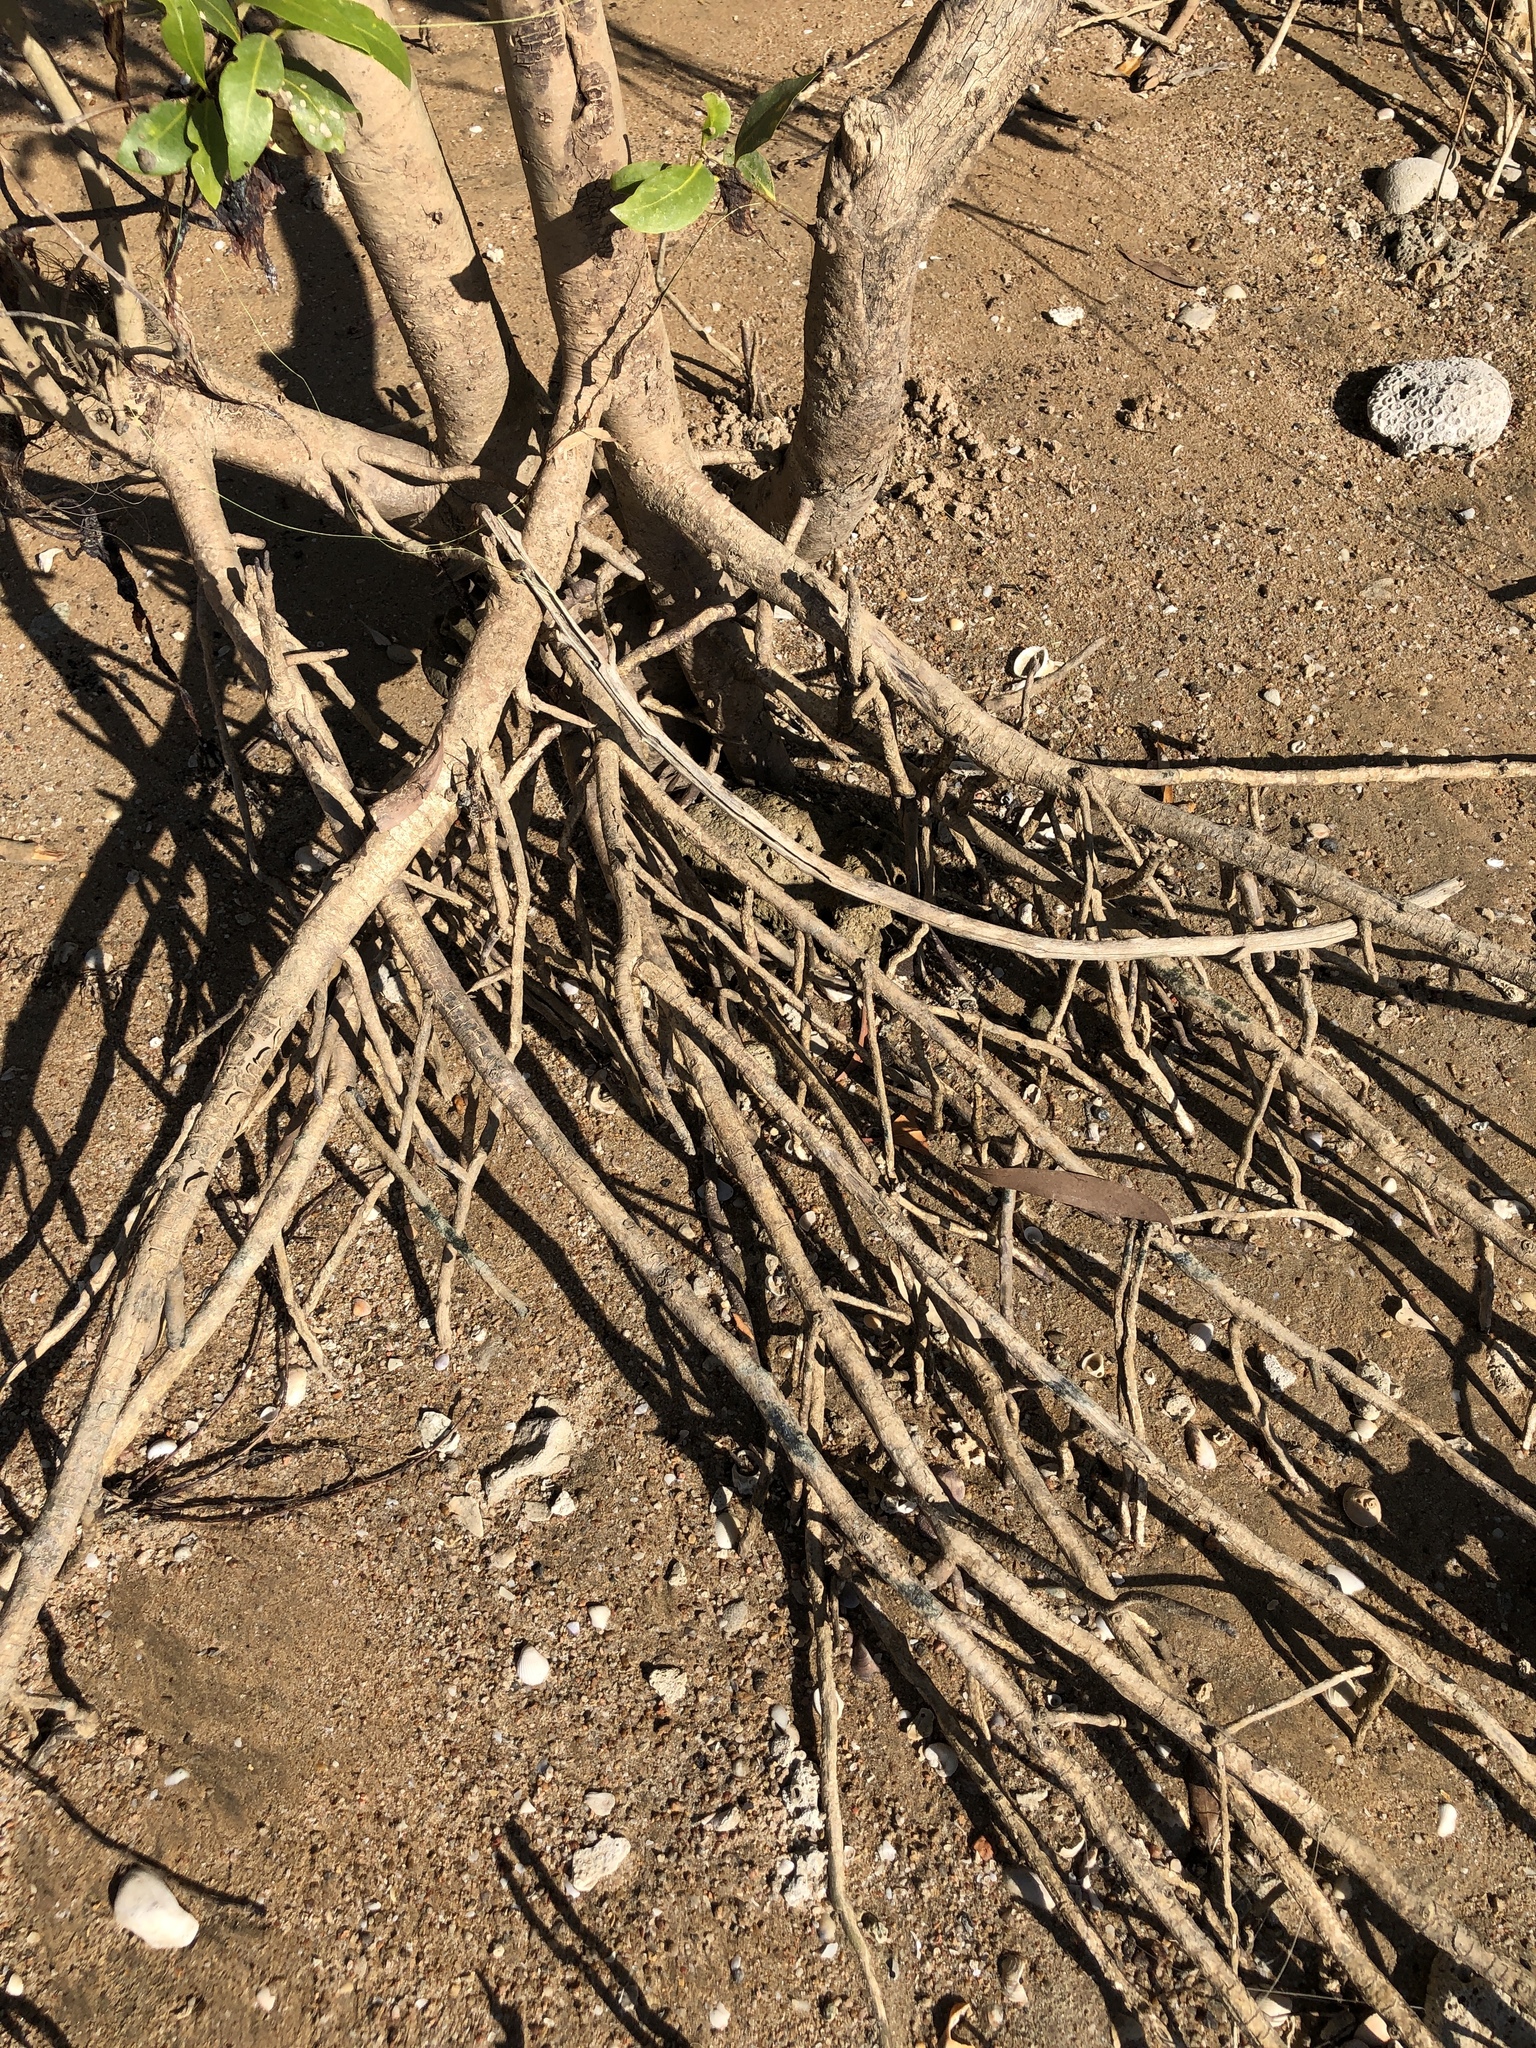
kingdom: Plantae
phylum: Tracheophyta
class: Magnoliopsida
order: Lamiales
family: Acanthaceae
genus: Avicennia
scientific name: Avicennia marina
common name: Gray mangrove
